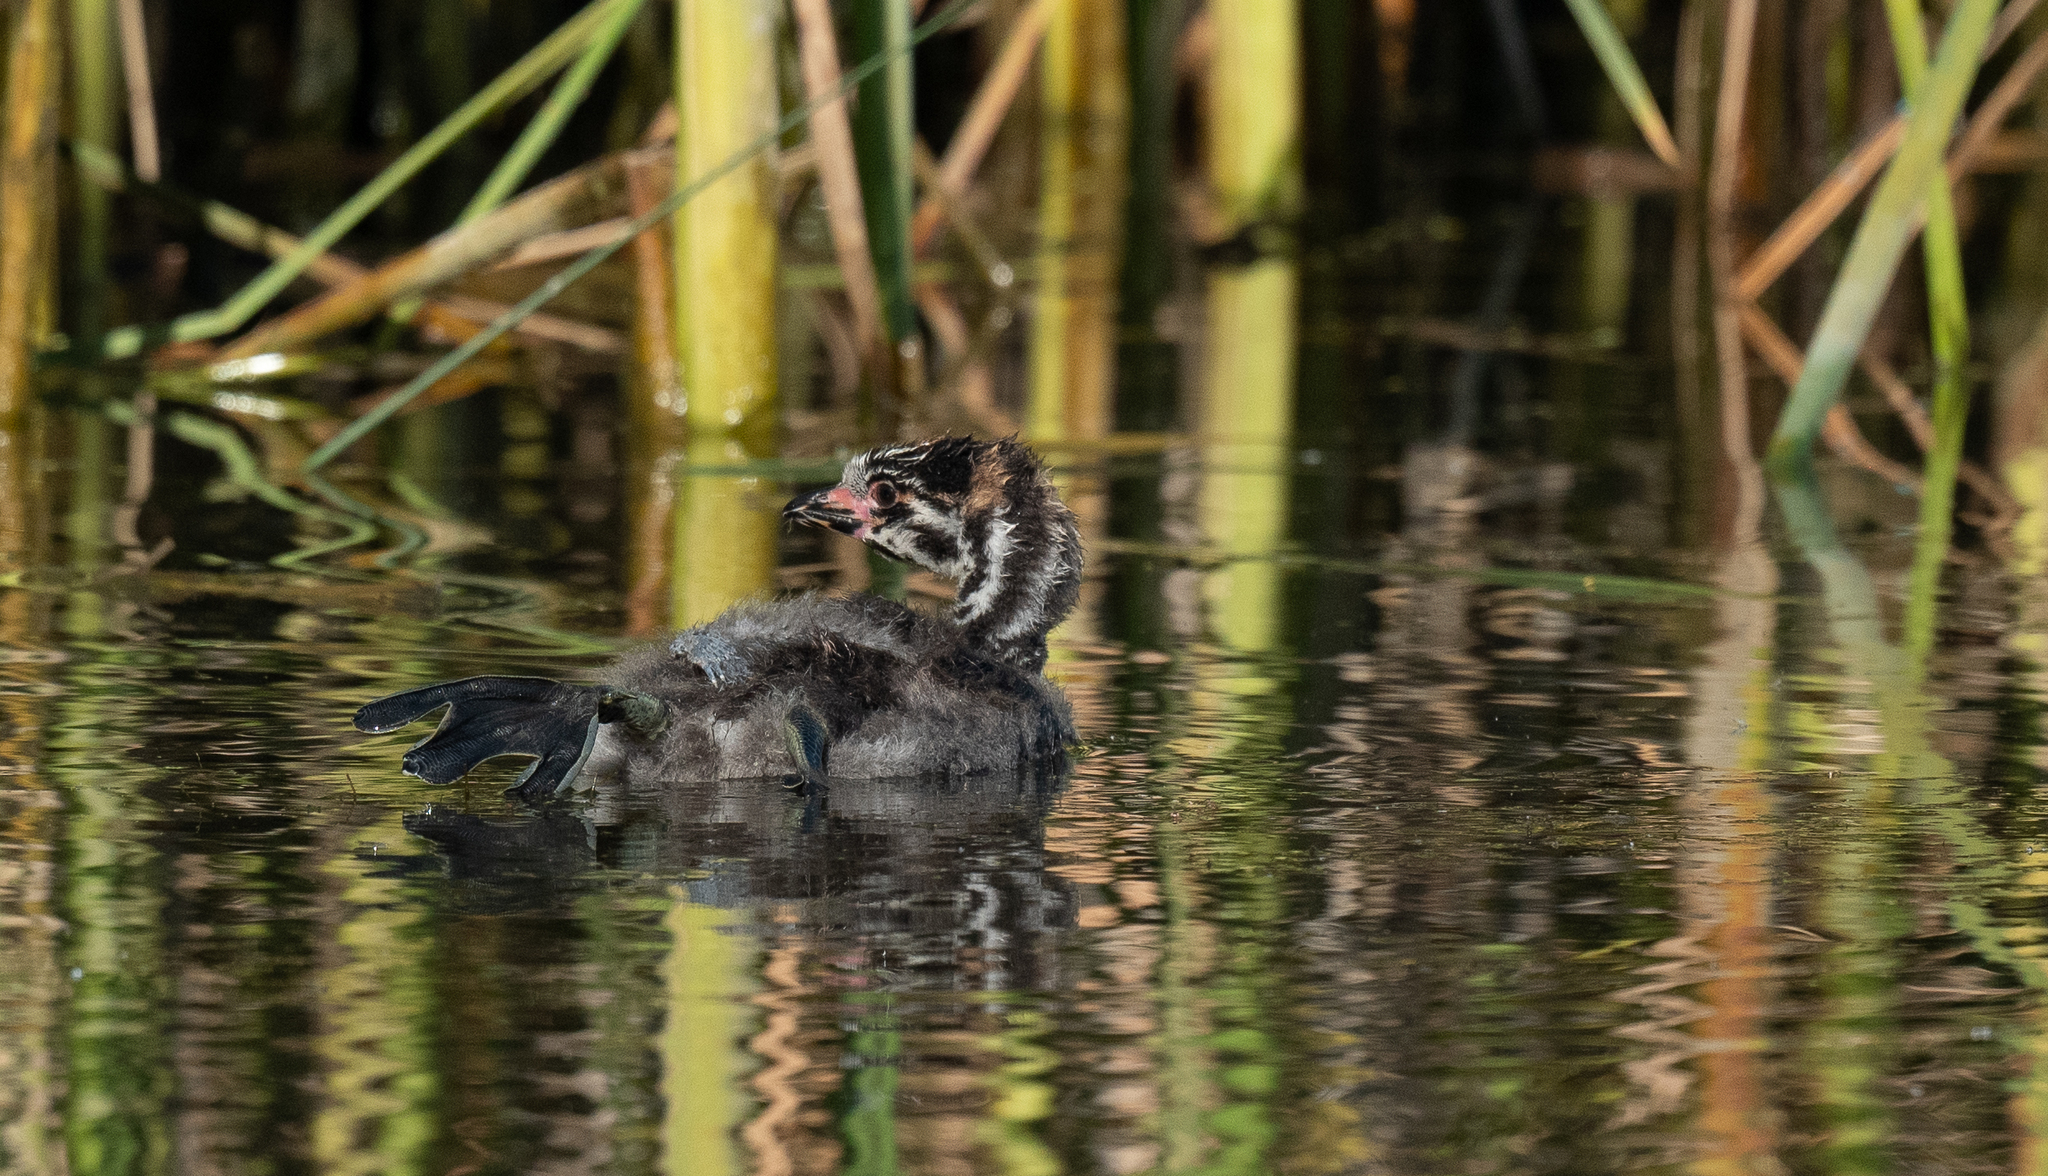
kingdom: Animalia
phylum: Chordata
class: Aves
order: Podicipediformes
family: Podicipedidae
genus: Podilymbus
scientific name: Podilymbus podiceps
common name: Pied-billed grebe
